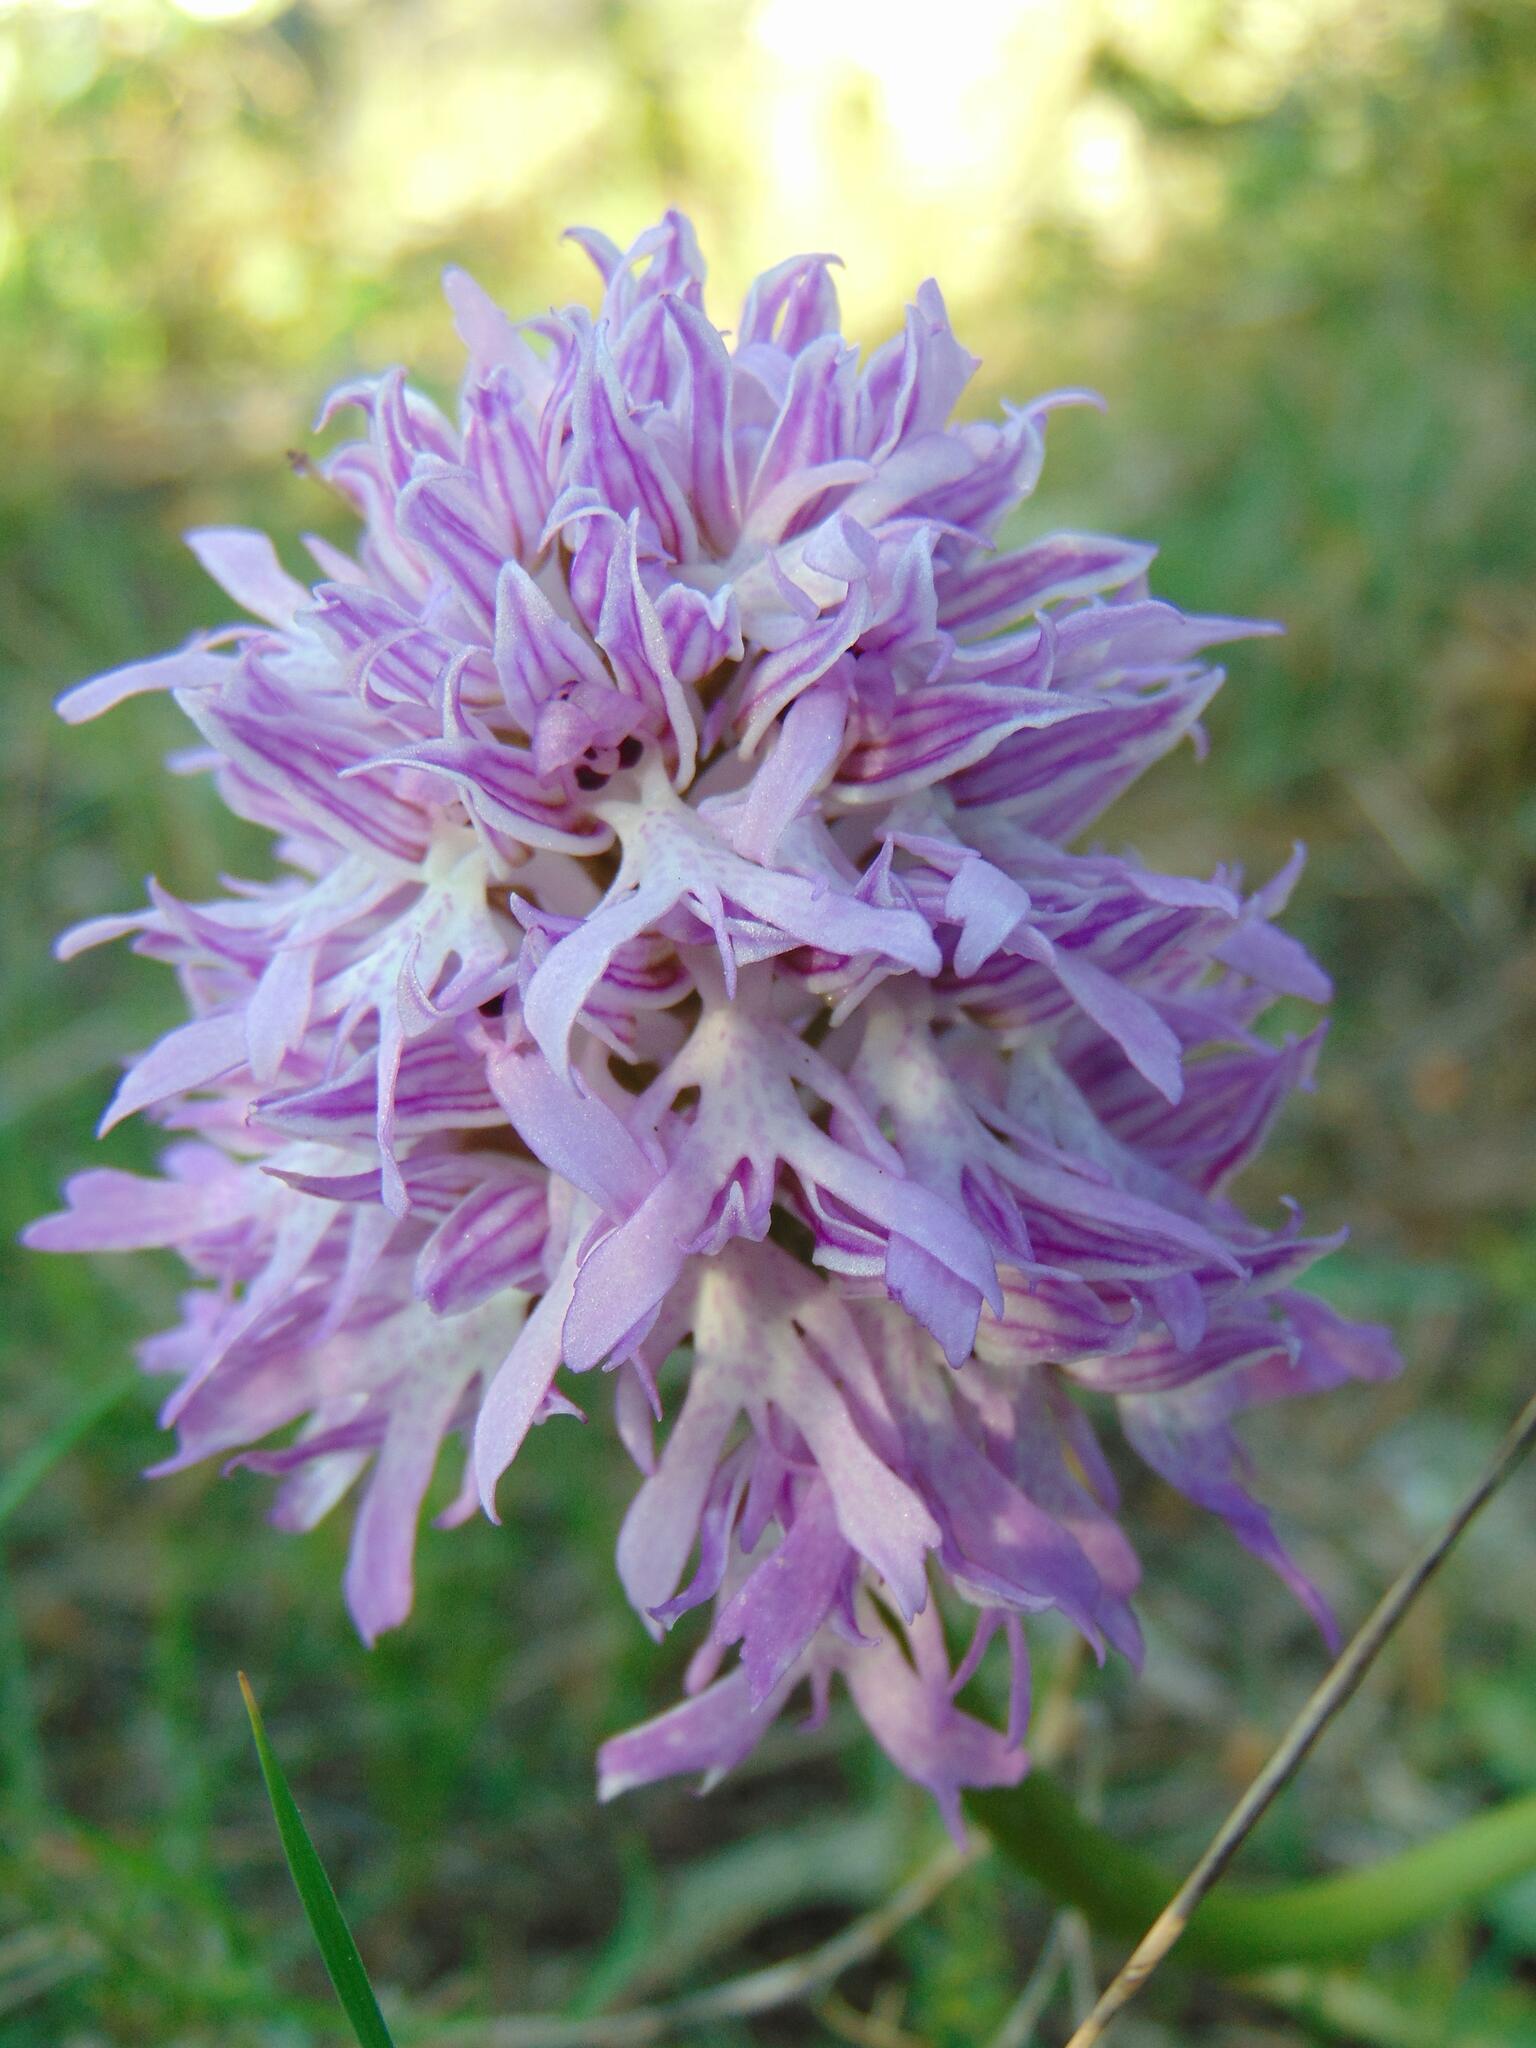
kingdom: Plantae
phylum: Tracheophyta
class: Liliopsida
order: Asparagales
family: Orchidaceae
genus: Orchis
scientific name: Orchis italica
